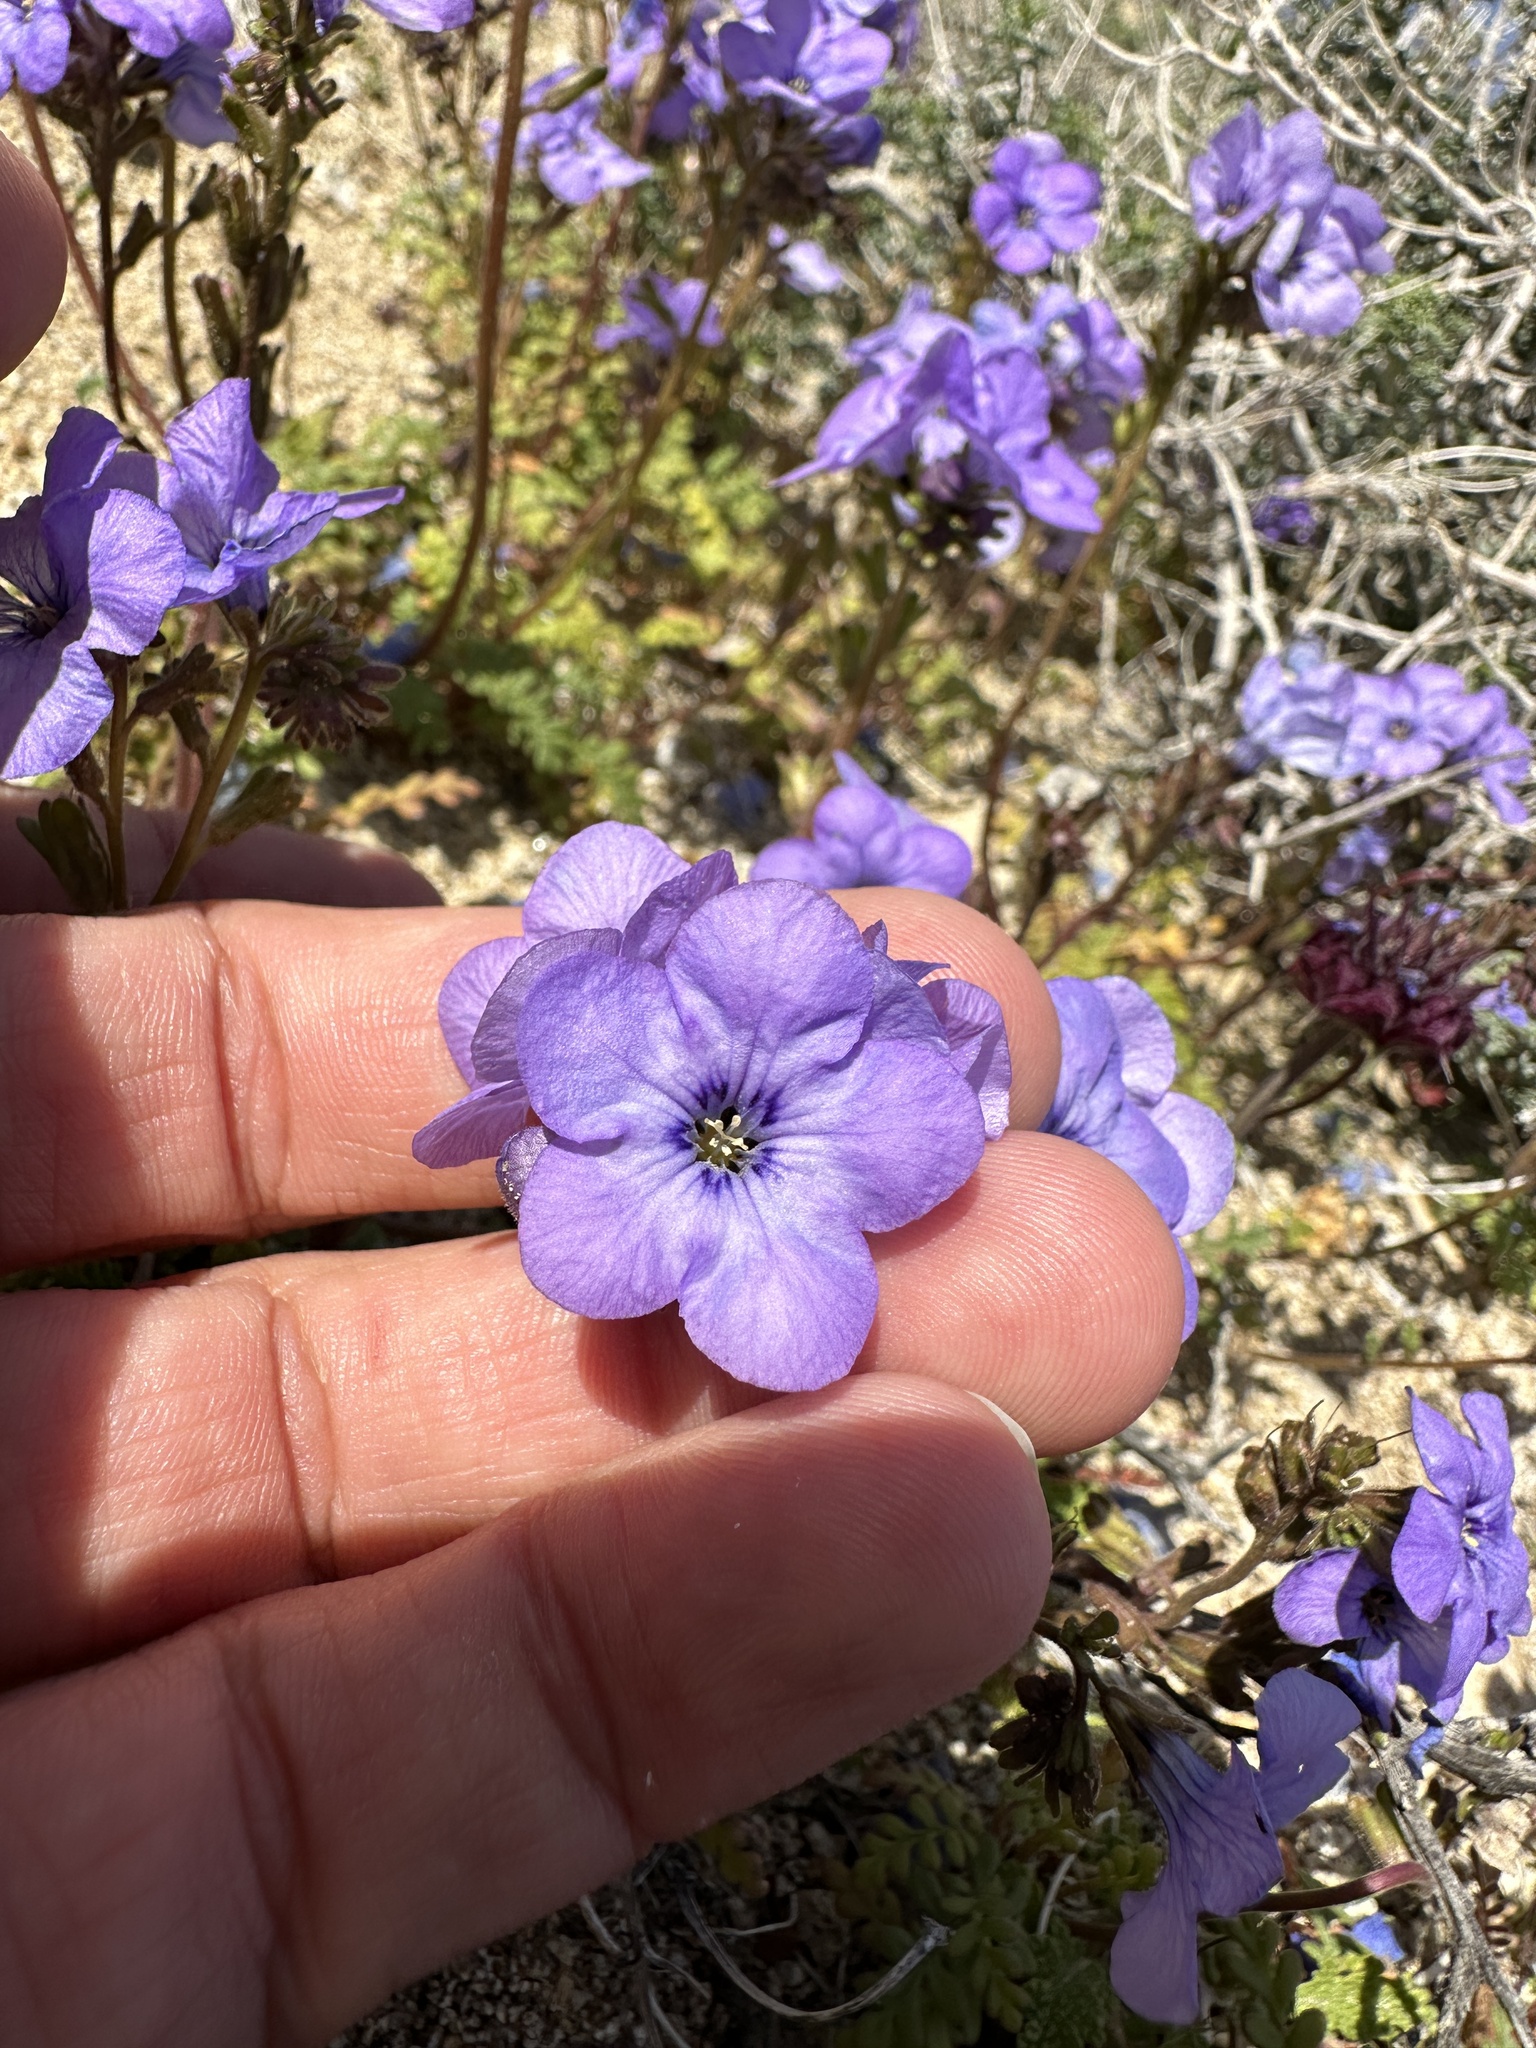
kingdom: Plantae
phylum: Tracheophyta
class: Magnoliopsida
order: Boraginales
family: Hydrophyllaceae
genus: Phacelia
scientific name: Phacelia fremontii
